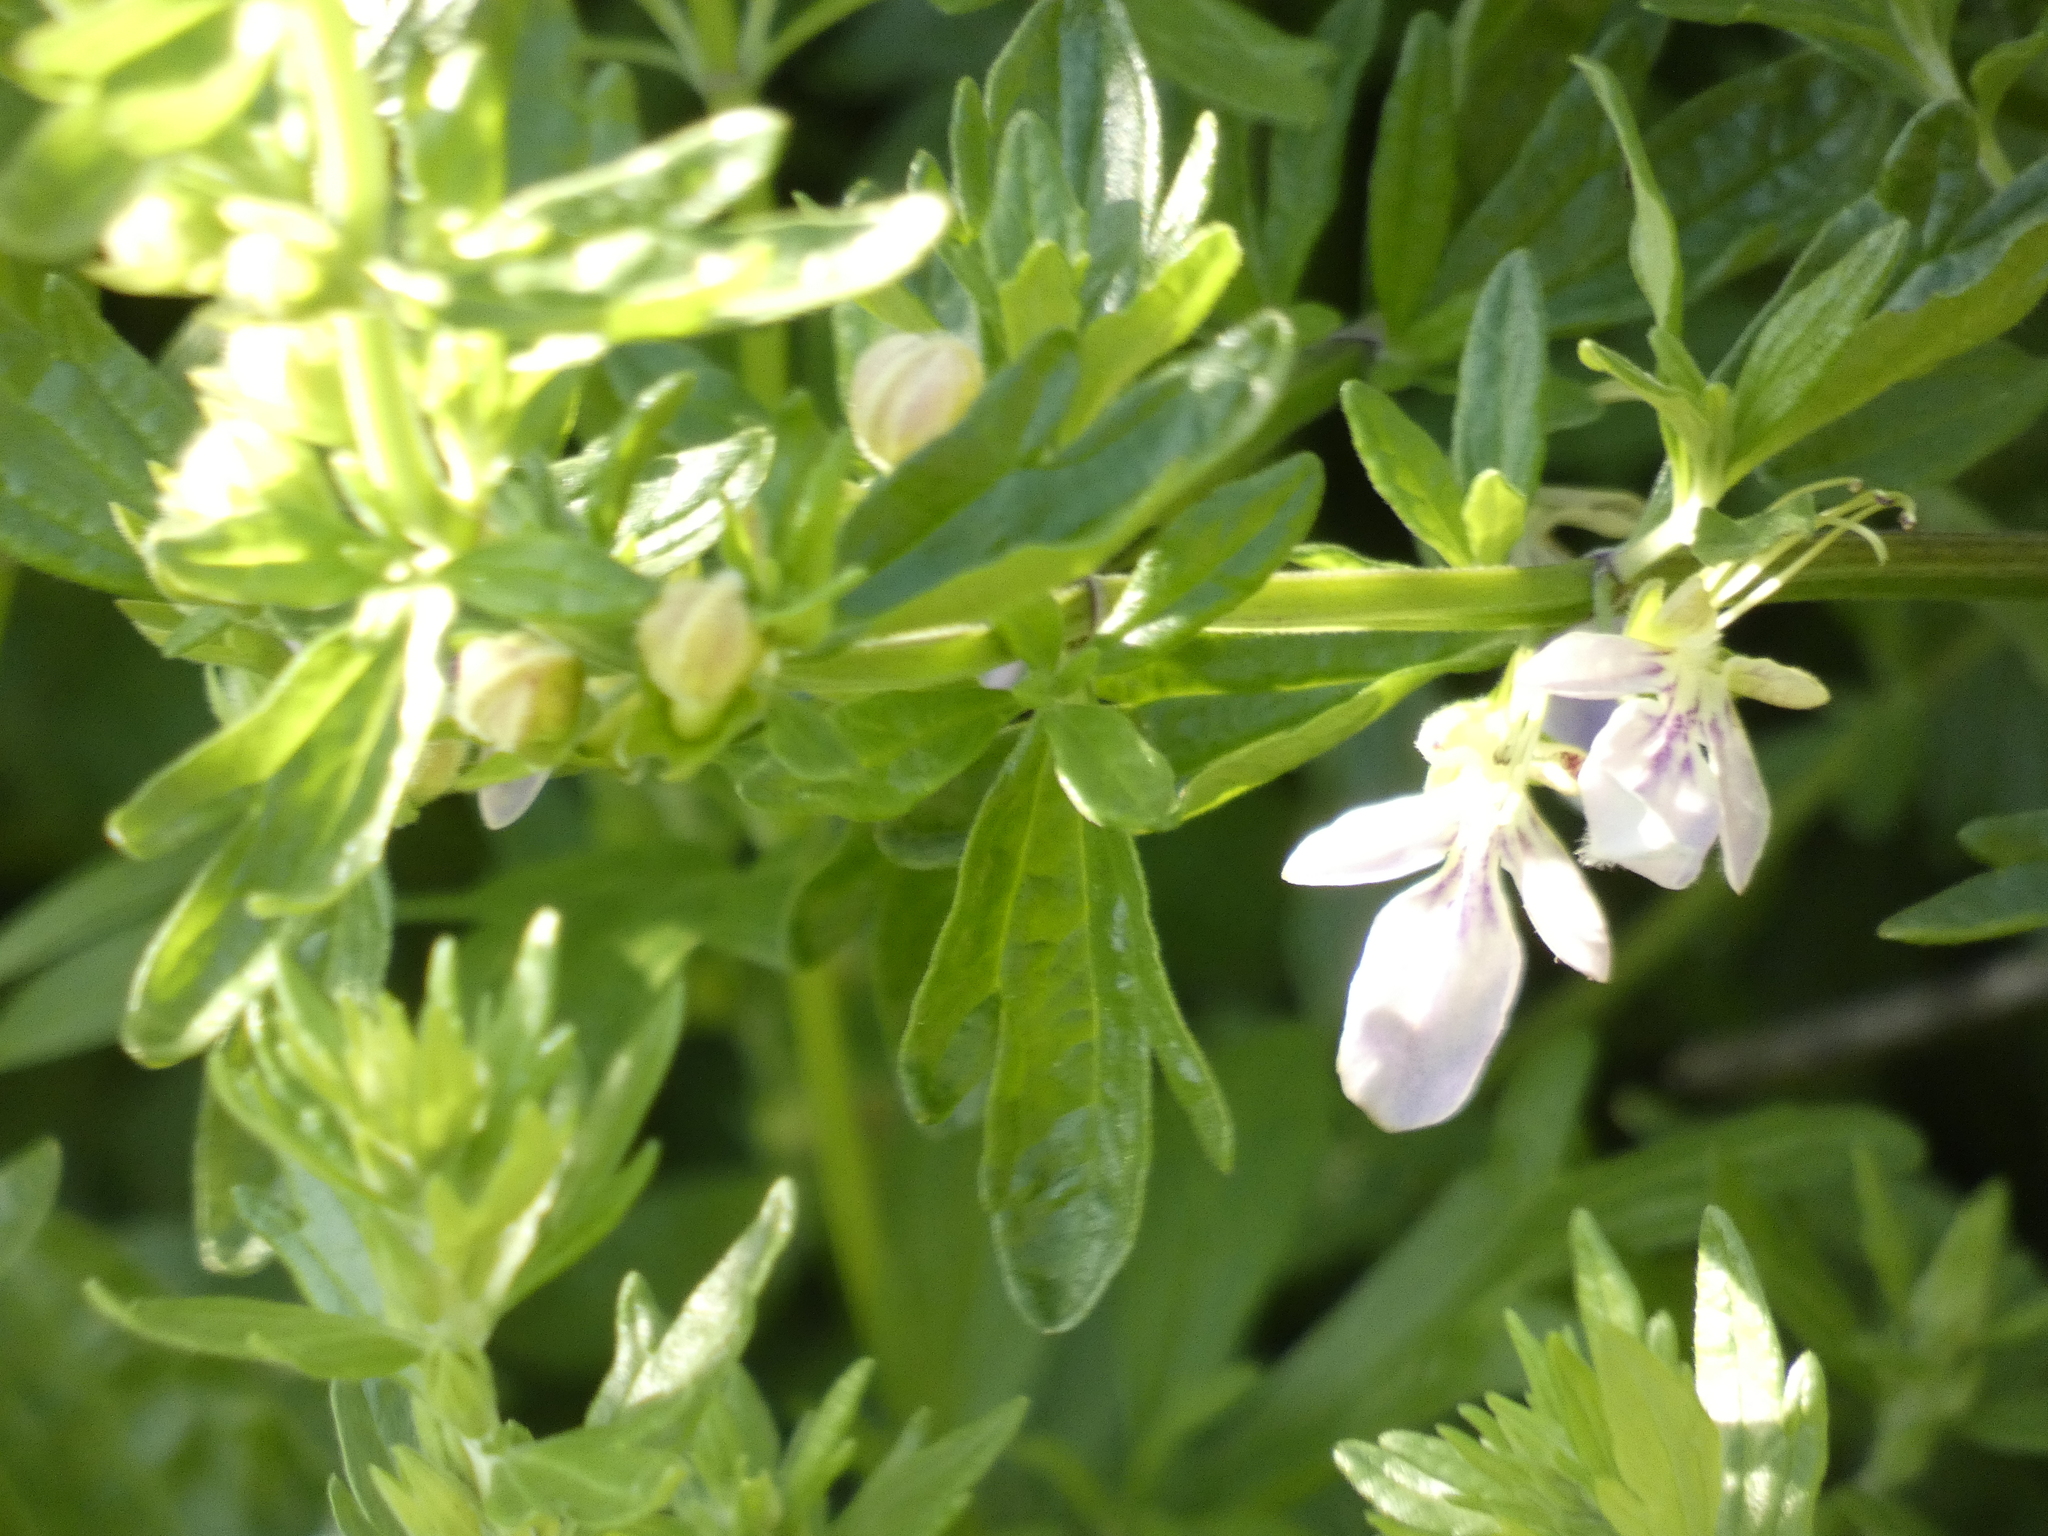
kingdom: Plantae
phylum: Tracheophyta
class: Magnoliopsida
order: Lamiales
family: Lamiaceae
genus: Teucrium
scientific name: Teucrium bicolor
